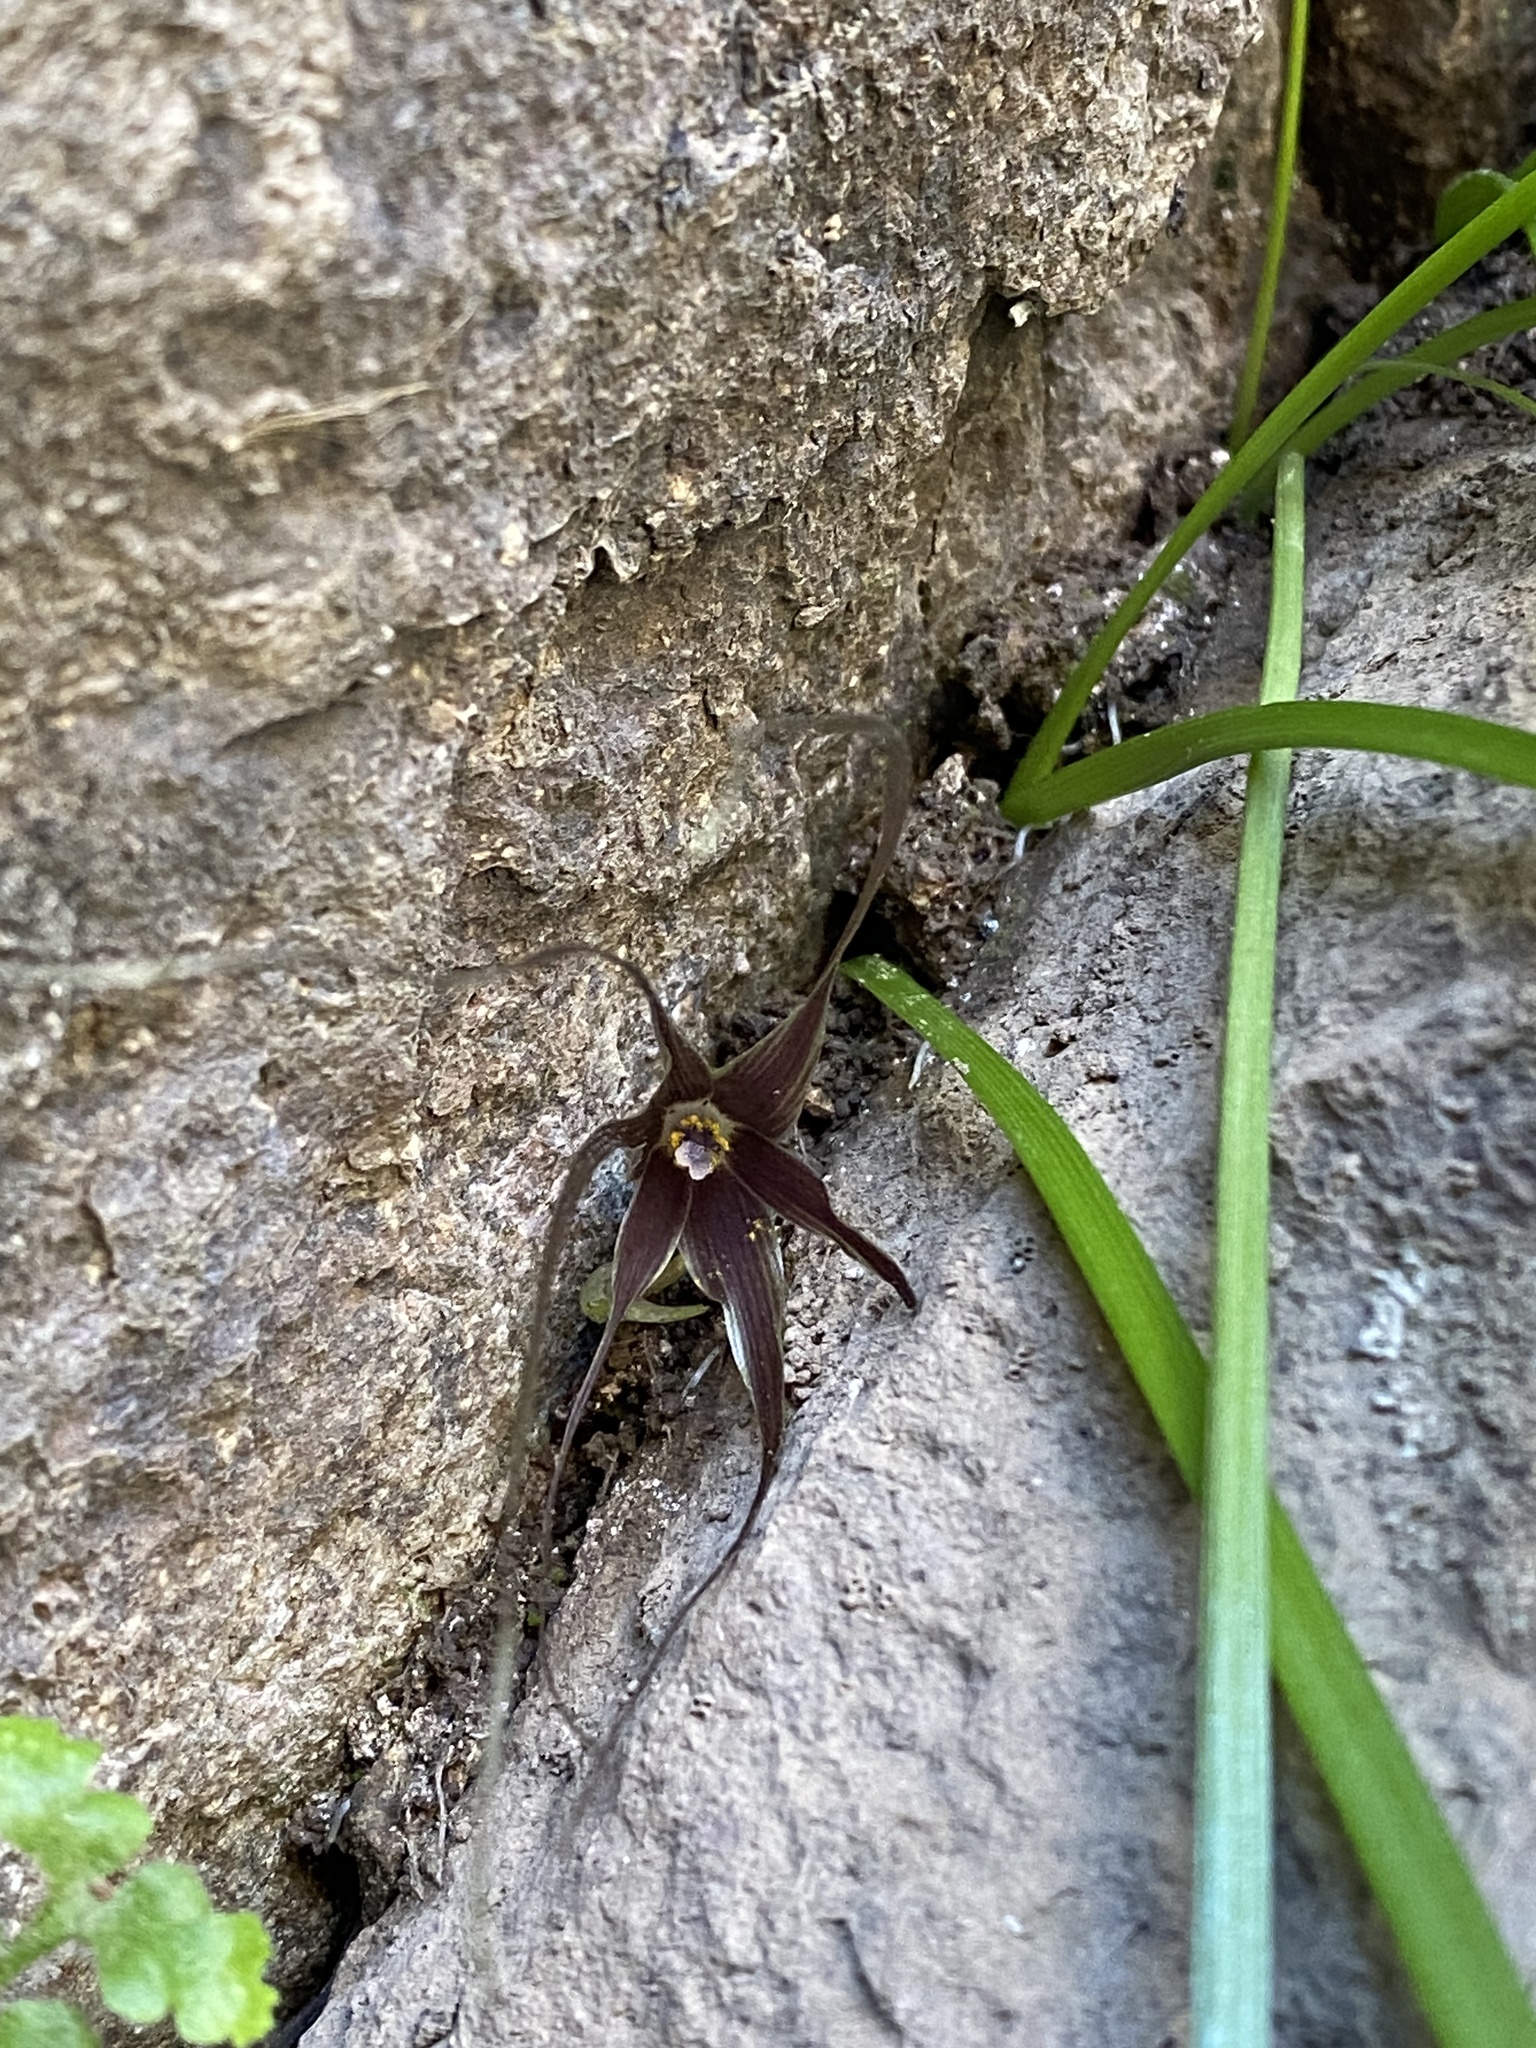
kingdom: Plantae
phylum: Tracheophyta
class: Liliopsida
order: Asparagales
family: Amaryllidaceae
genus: Miersia
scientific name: Miersia humilis
